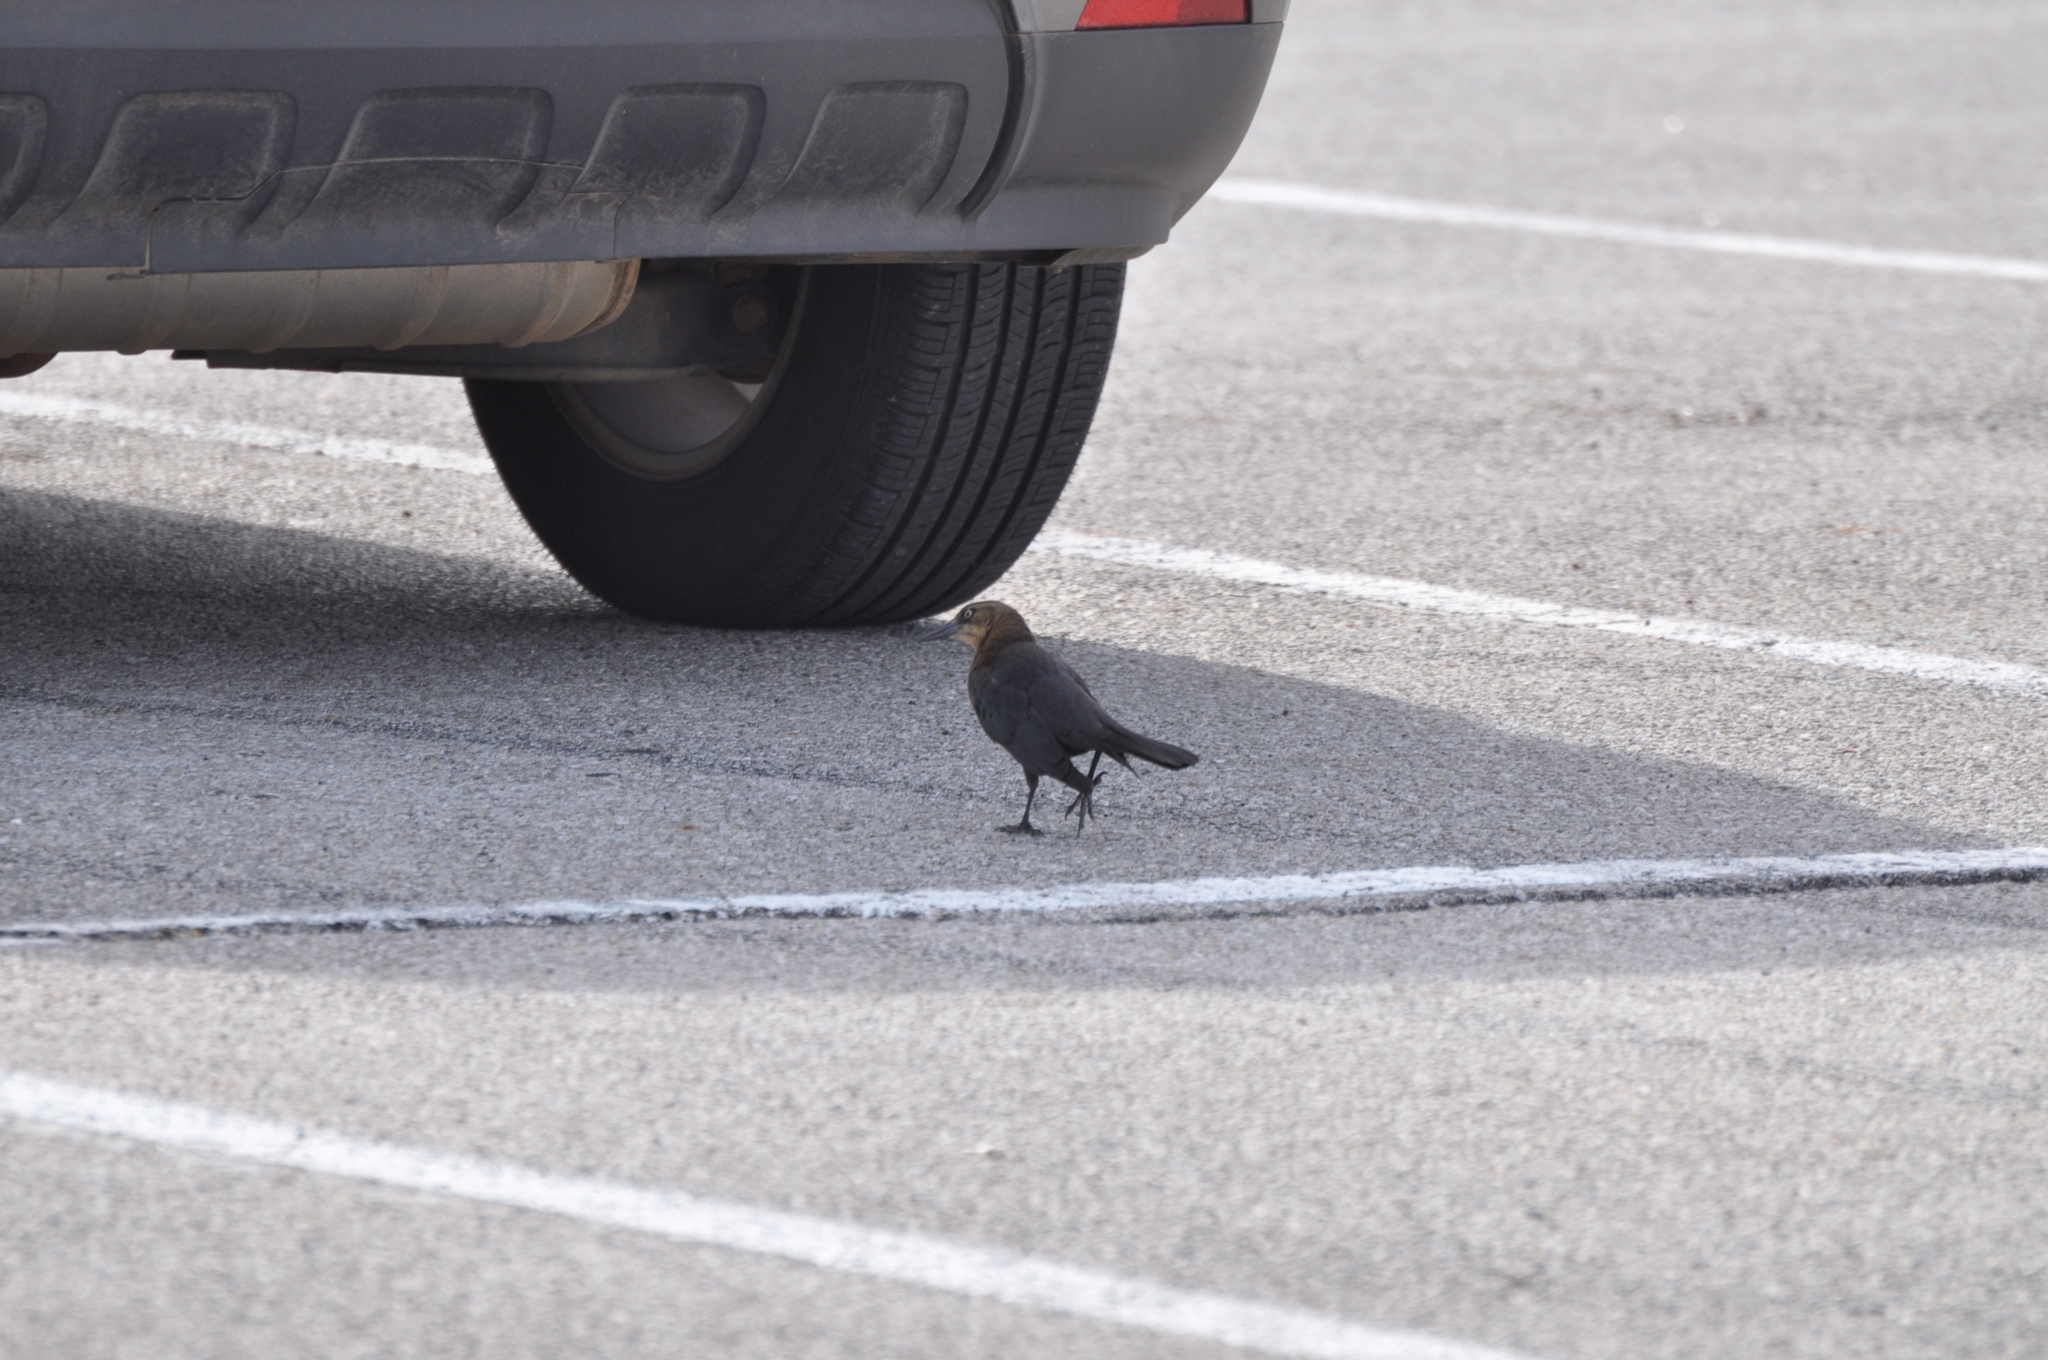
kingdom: Animalia
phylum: Chordata
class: Aves
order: Passeriformes
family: Icteridae
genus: Quiscalus
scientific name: Quiscalus mexicanus
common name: Great-tailed grackle
